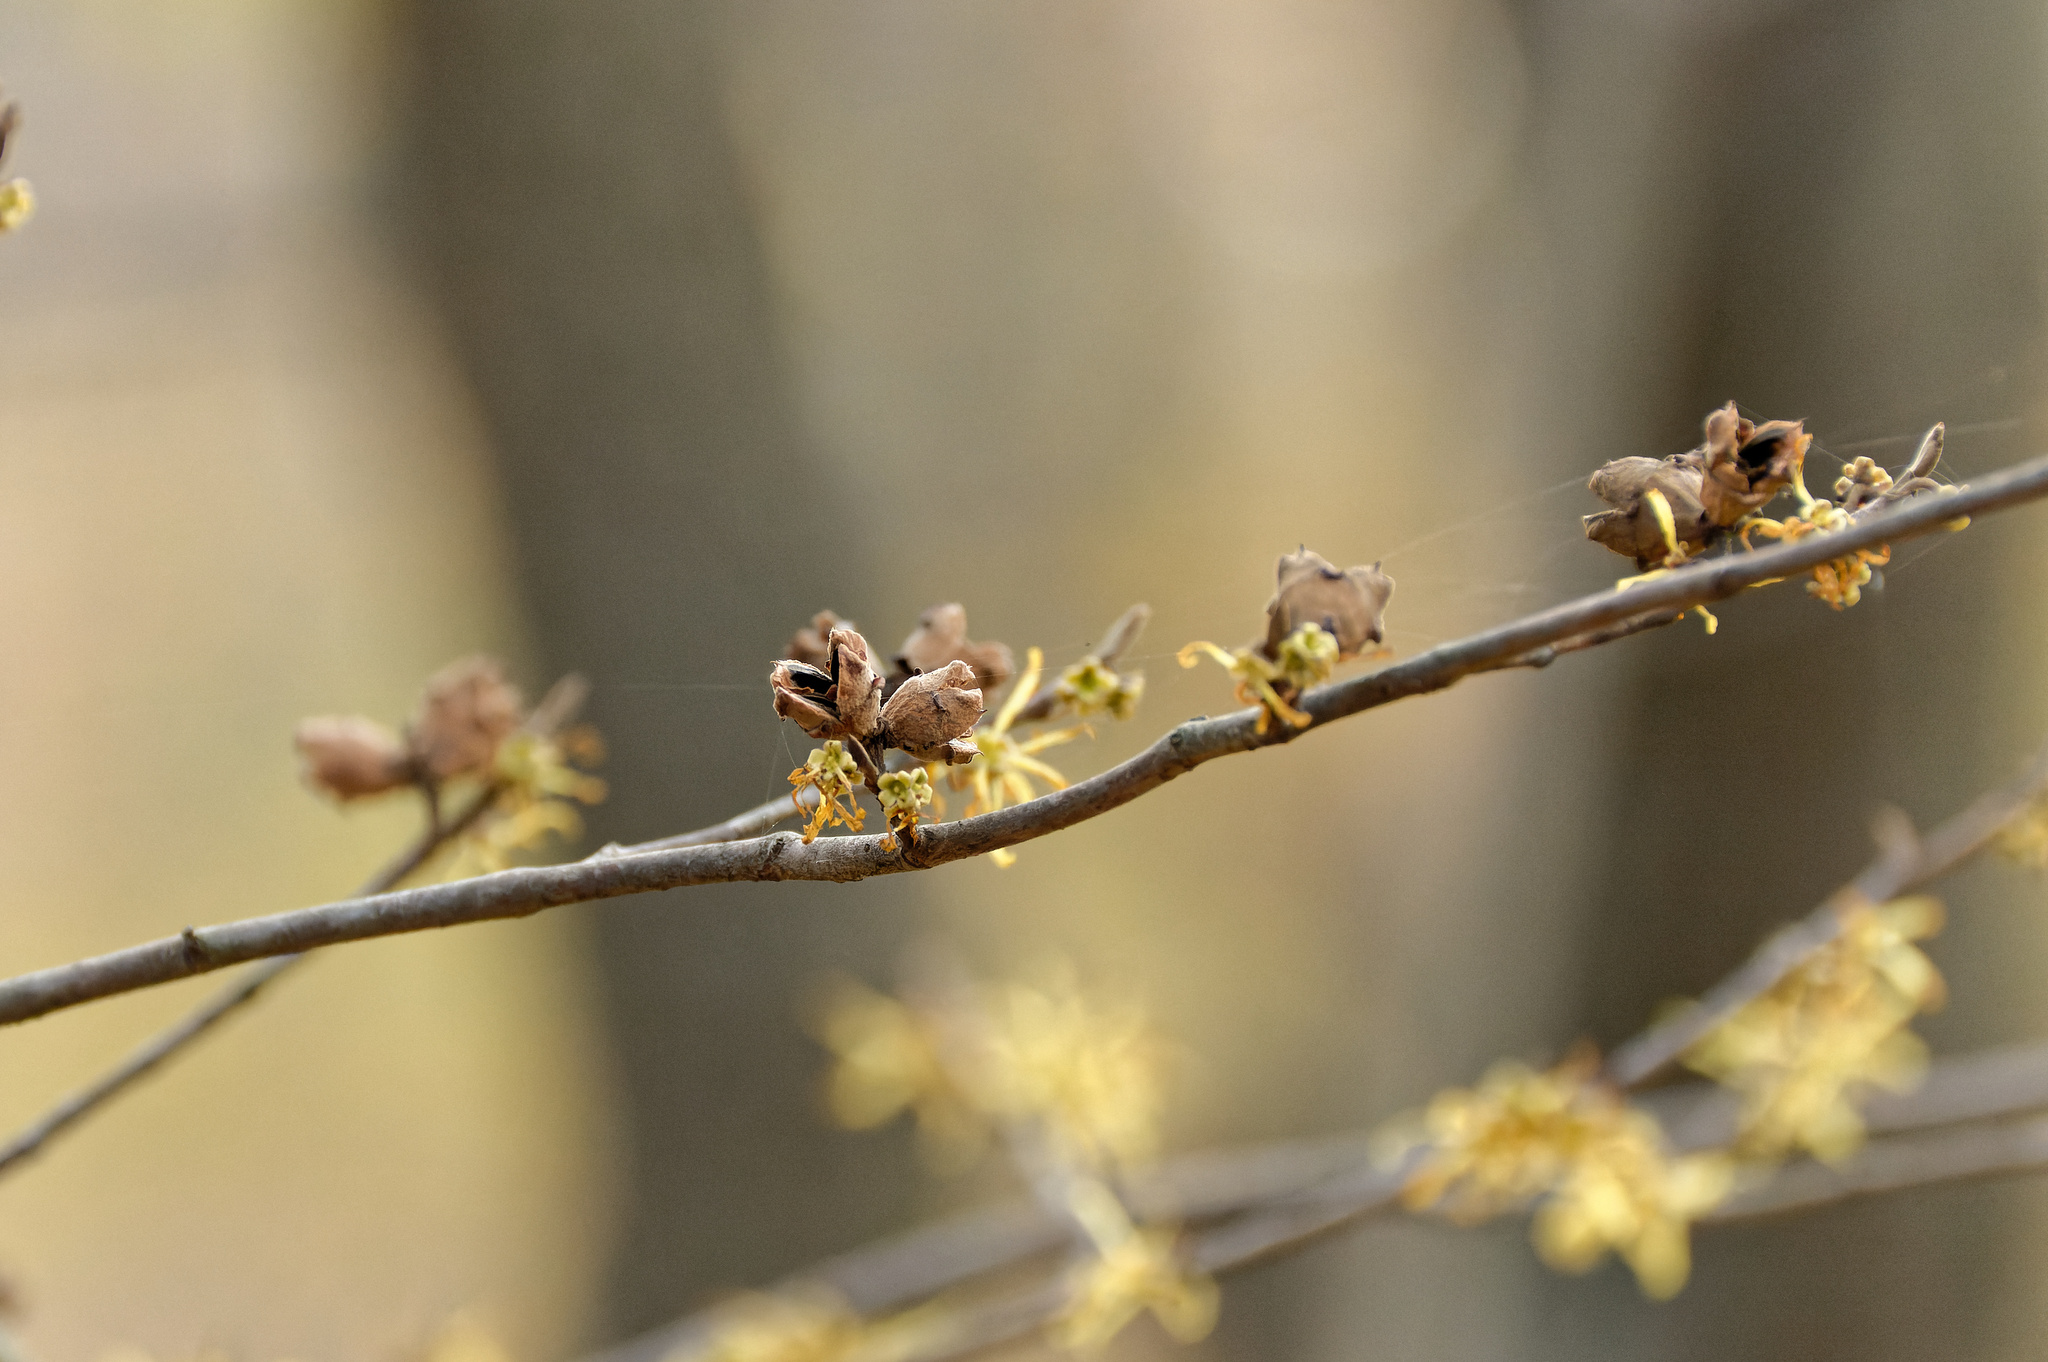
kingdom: Plantae
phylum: Tracheophyta
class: Magnoliopsida
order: Saxifragales
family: Hamamelidaceae
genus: Hamamelis
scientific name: Hamamelis virginiana
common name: Witch-hazel
